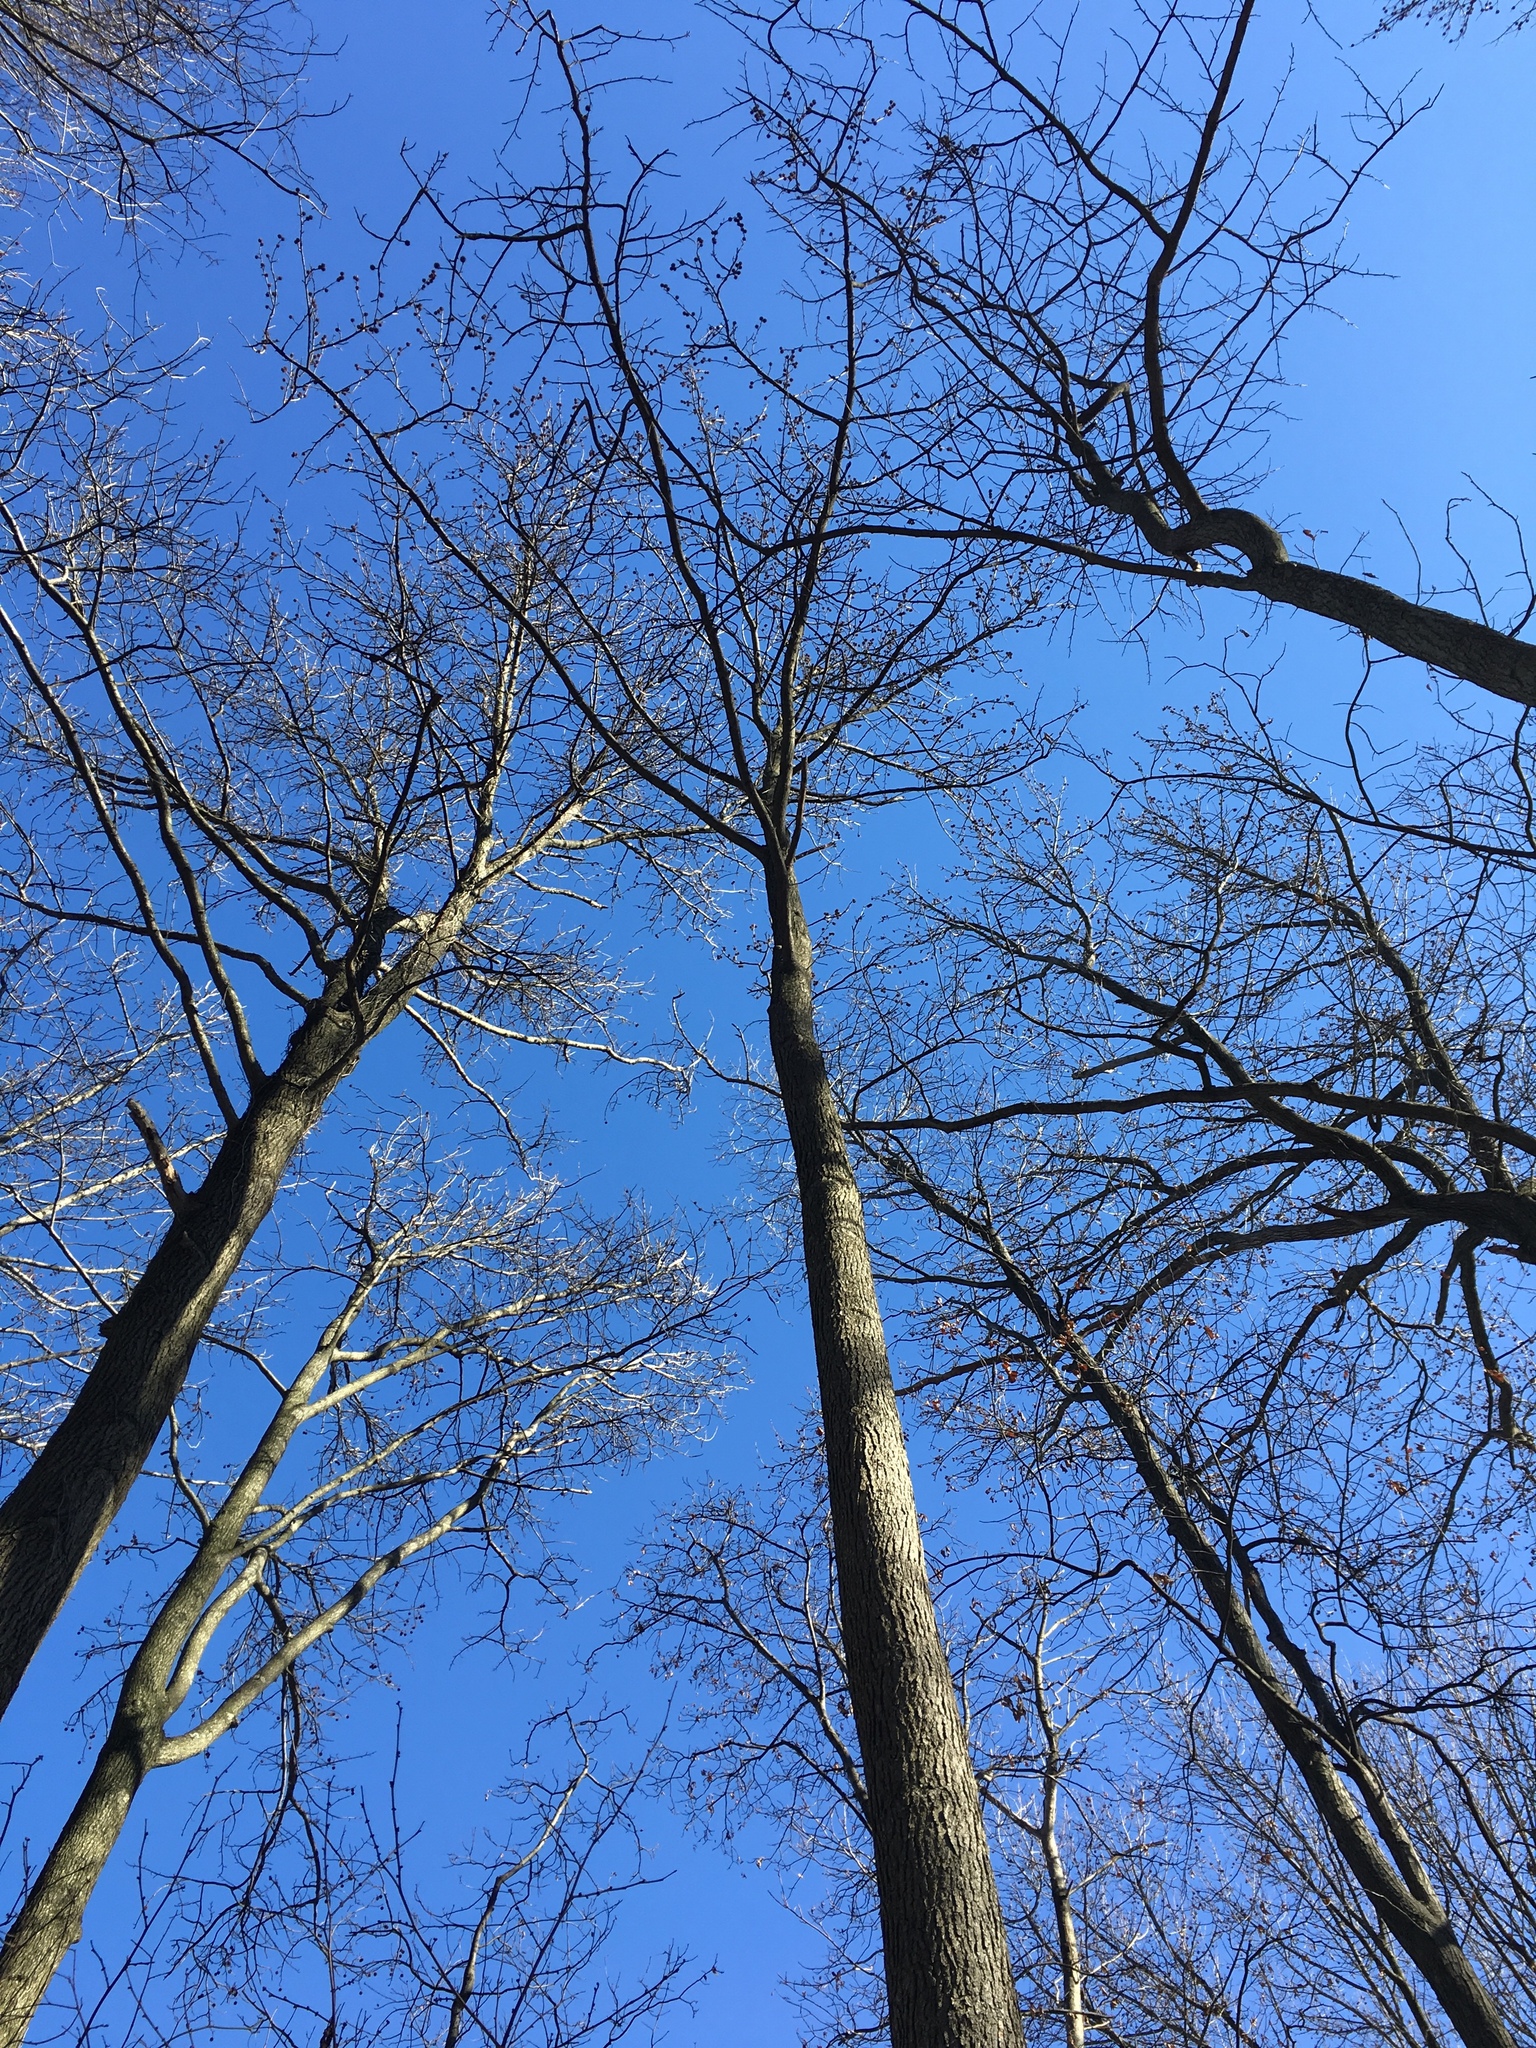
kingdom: Plantae
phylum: Tracheophyta
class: Magnoliopsida
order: Saxifragales
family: Altingiaceae
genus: Liquidambar
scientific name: Liquidambar styraciflua
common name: Sweet gum
